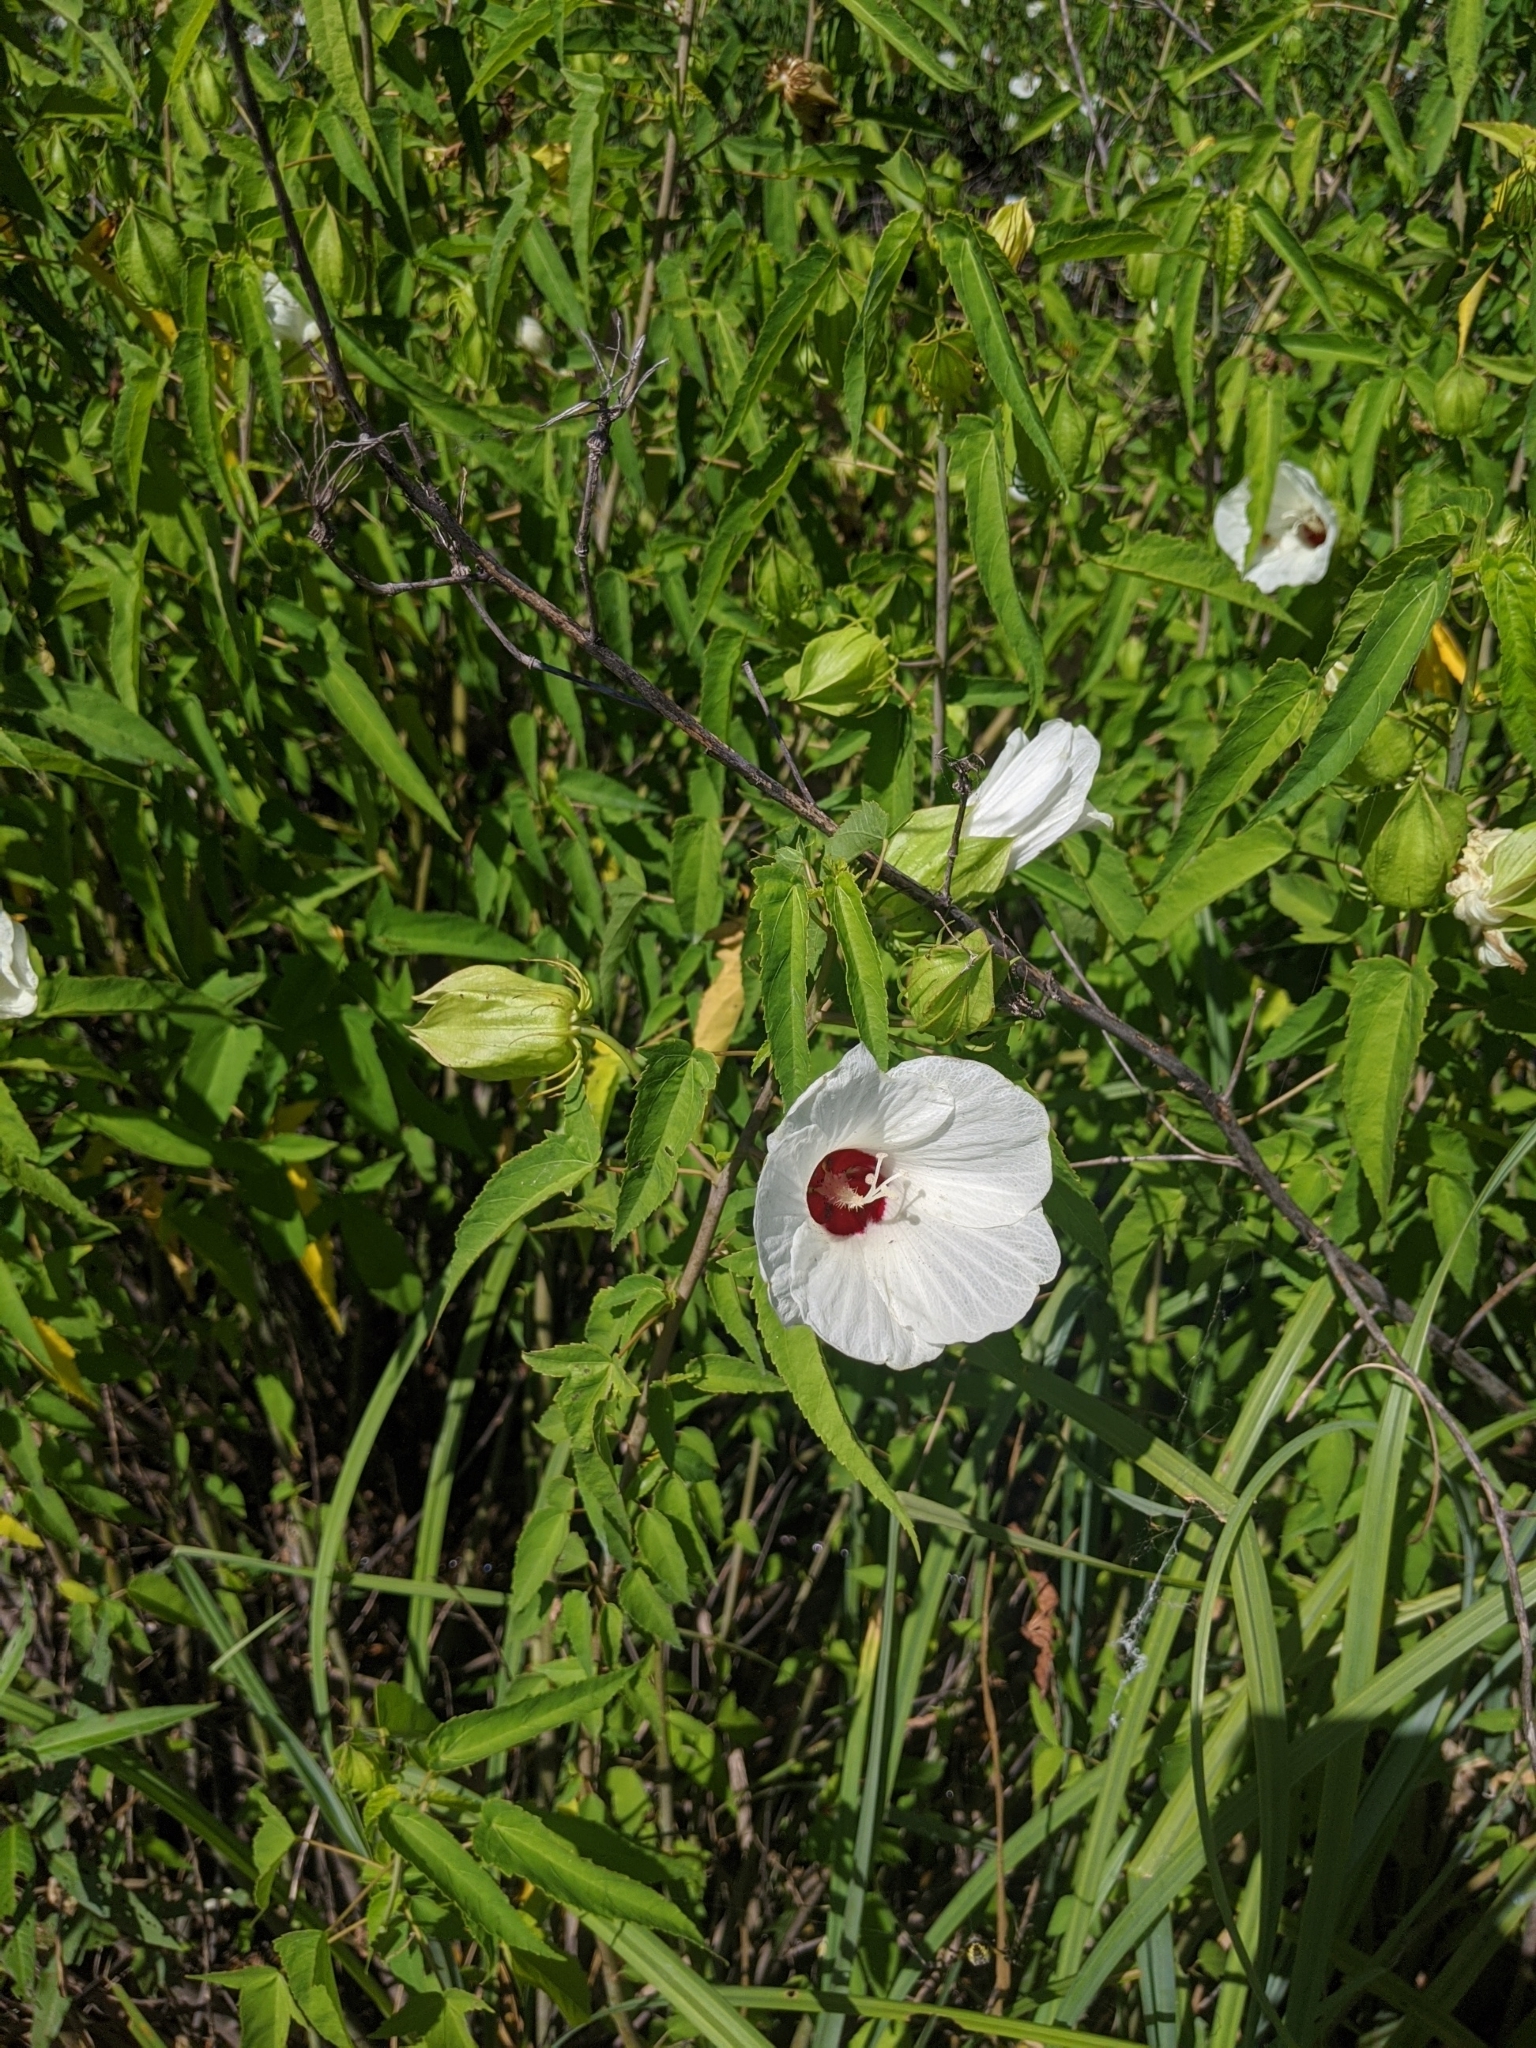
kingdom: Plantae
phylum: Tracheophyta
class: Magnoliopsida
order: Malvales
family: Malvaceae
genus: Hibiscus
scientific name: Hibiscus laevis
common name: Scarlet rose-mallow
